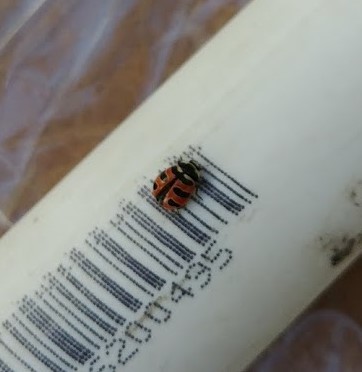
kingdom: Animalia
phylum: Arthropoda
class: Insecta
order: Coleoptera
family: Coccinellidae
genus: Coccinella
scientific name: Coccinella trifasciata
